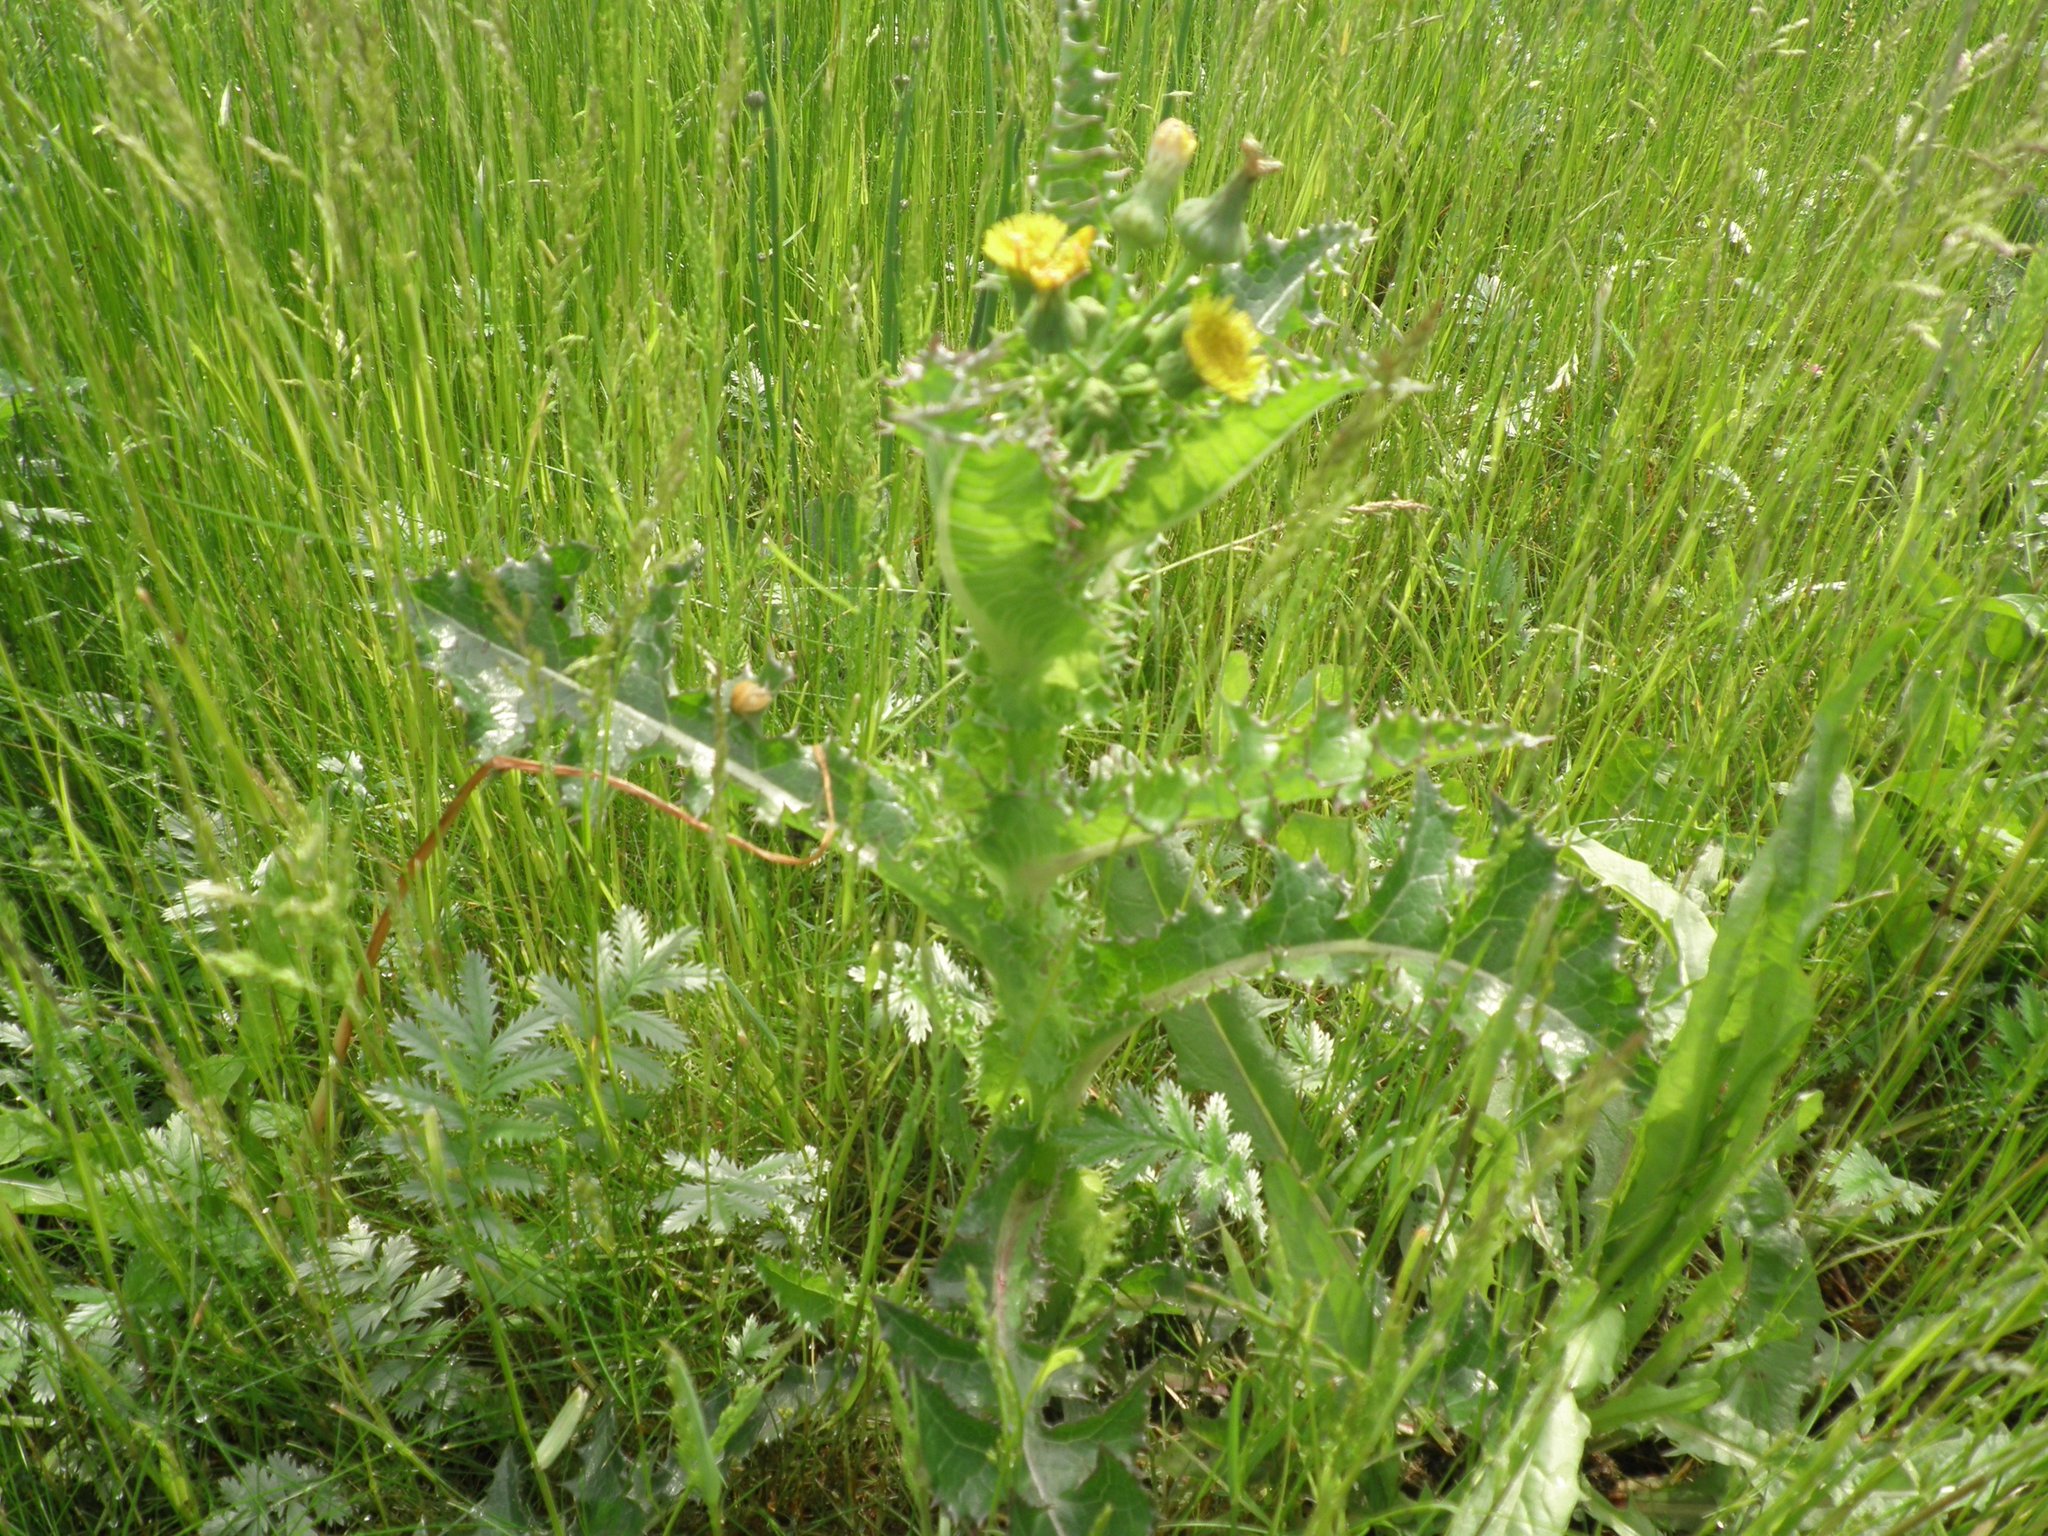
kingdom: Plantae
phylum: Tracheophyta
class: Magnoliopsida
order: Asterales
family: Asteraceae
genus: Sonchus
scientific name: Sonchus asper
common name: Prickly sow-thistle
